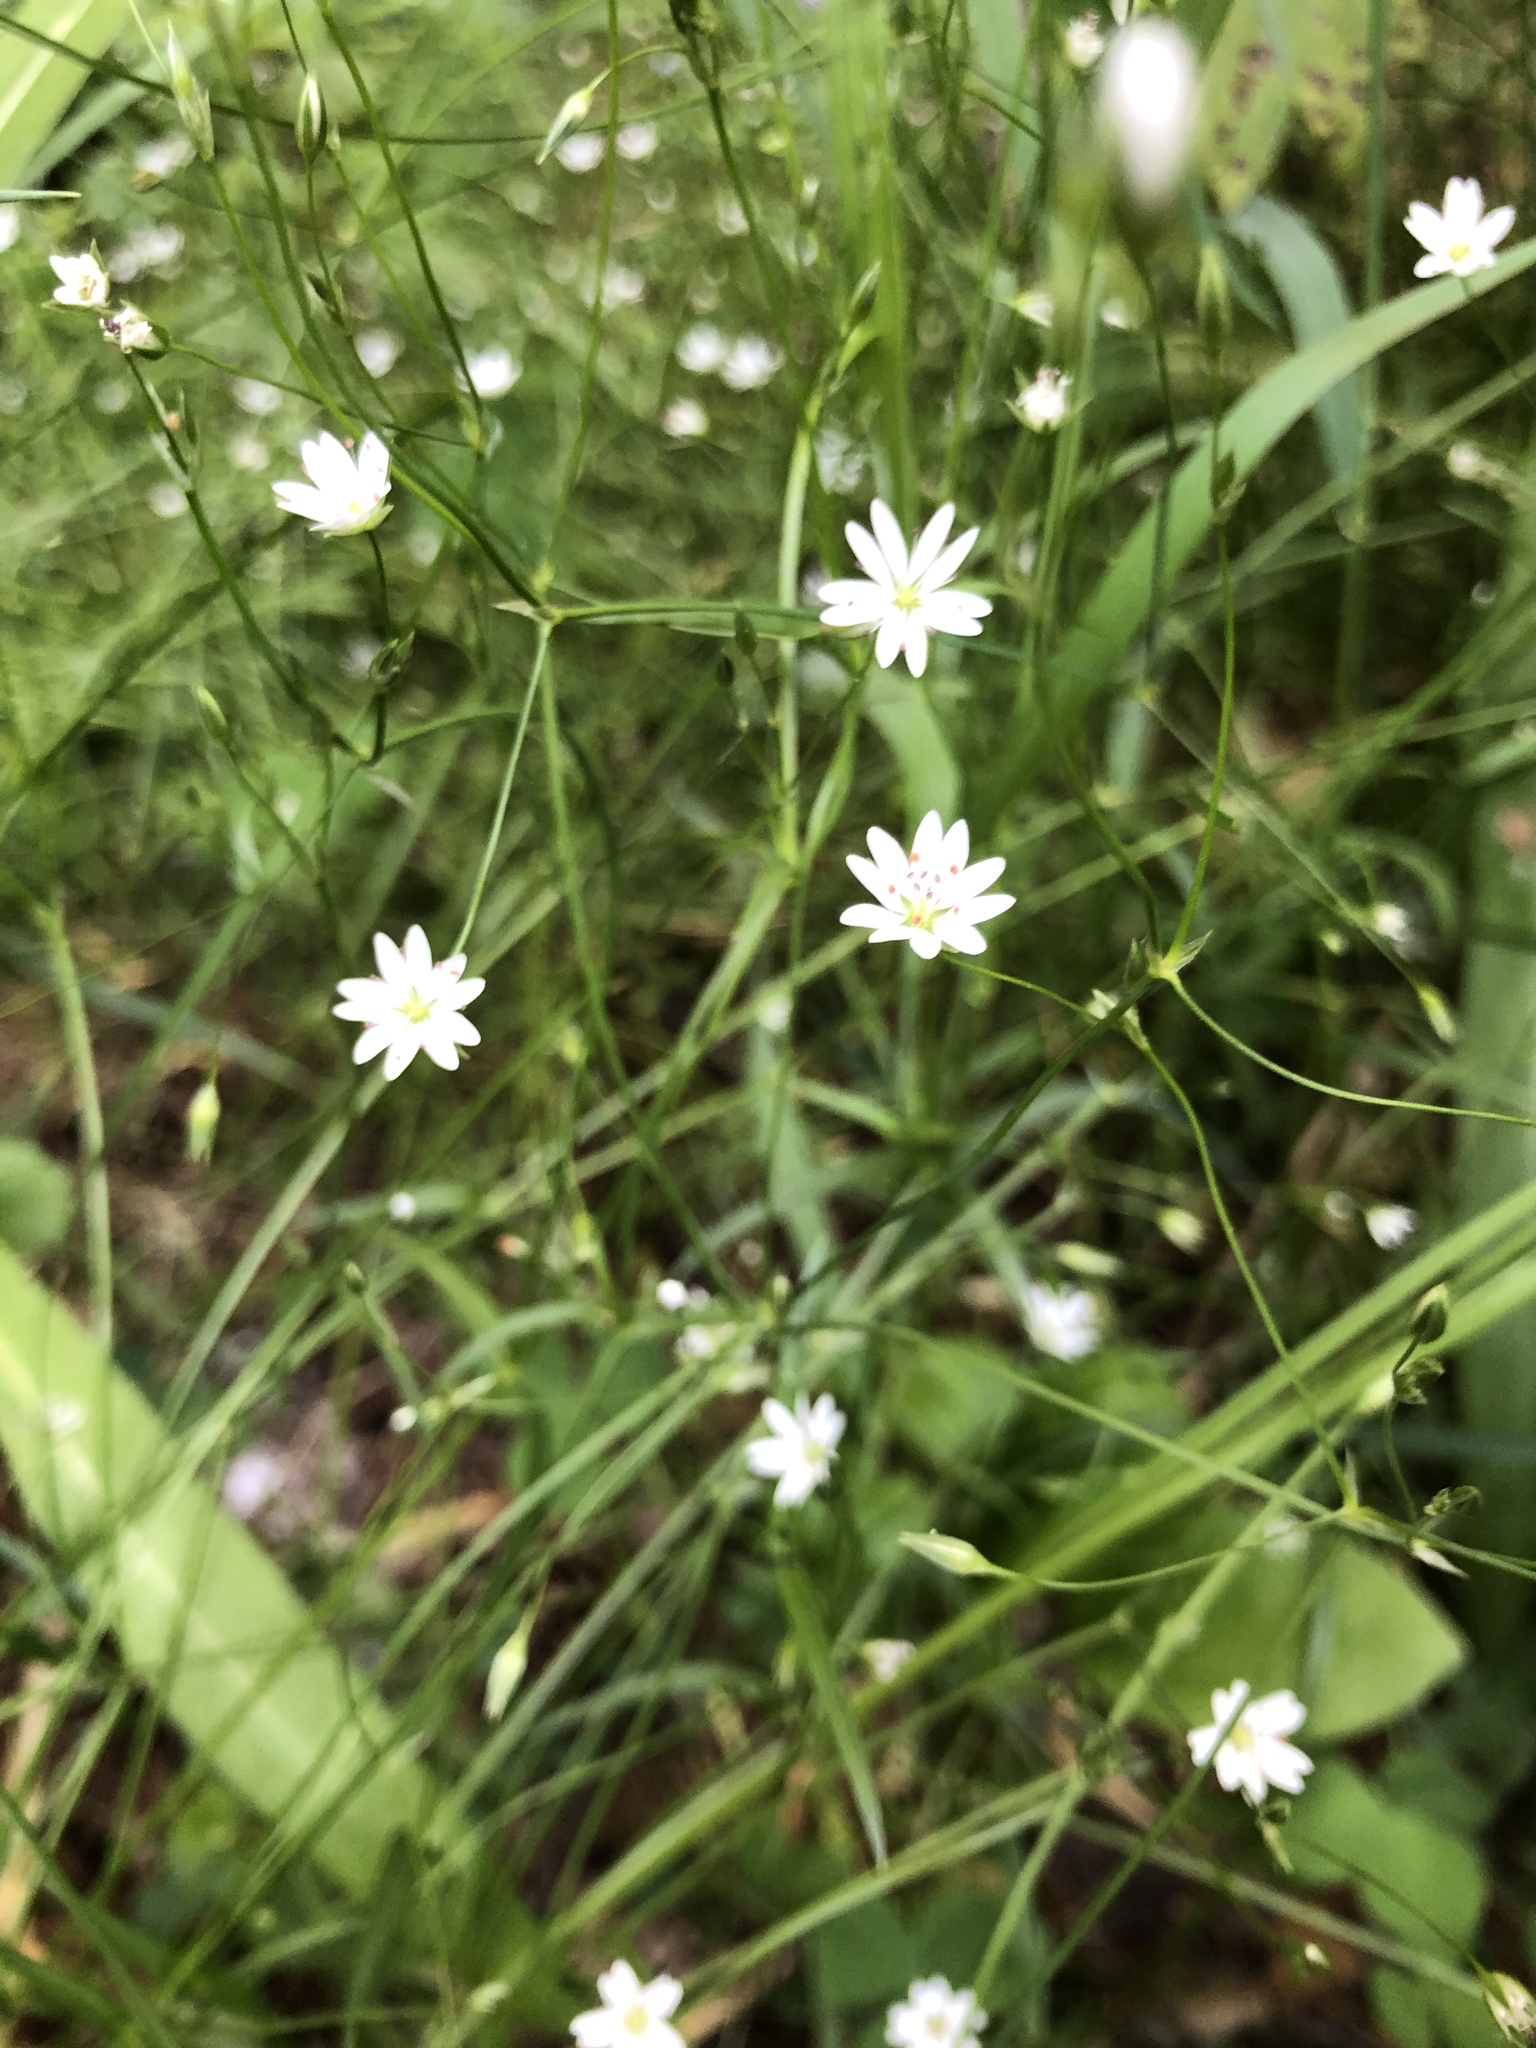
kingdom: Plantae
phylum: Tracheophyta
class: Magnoliopsida
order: Caryophyllales
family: Caryophyllaceae
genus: Stellaria
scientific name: Stellaria graminea
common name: Grass-like starwort
